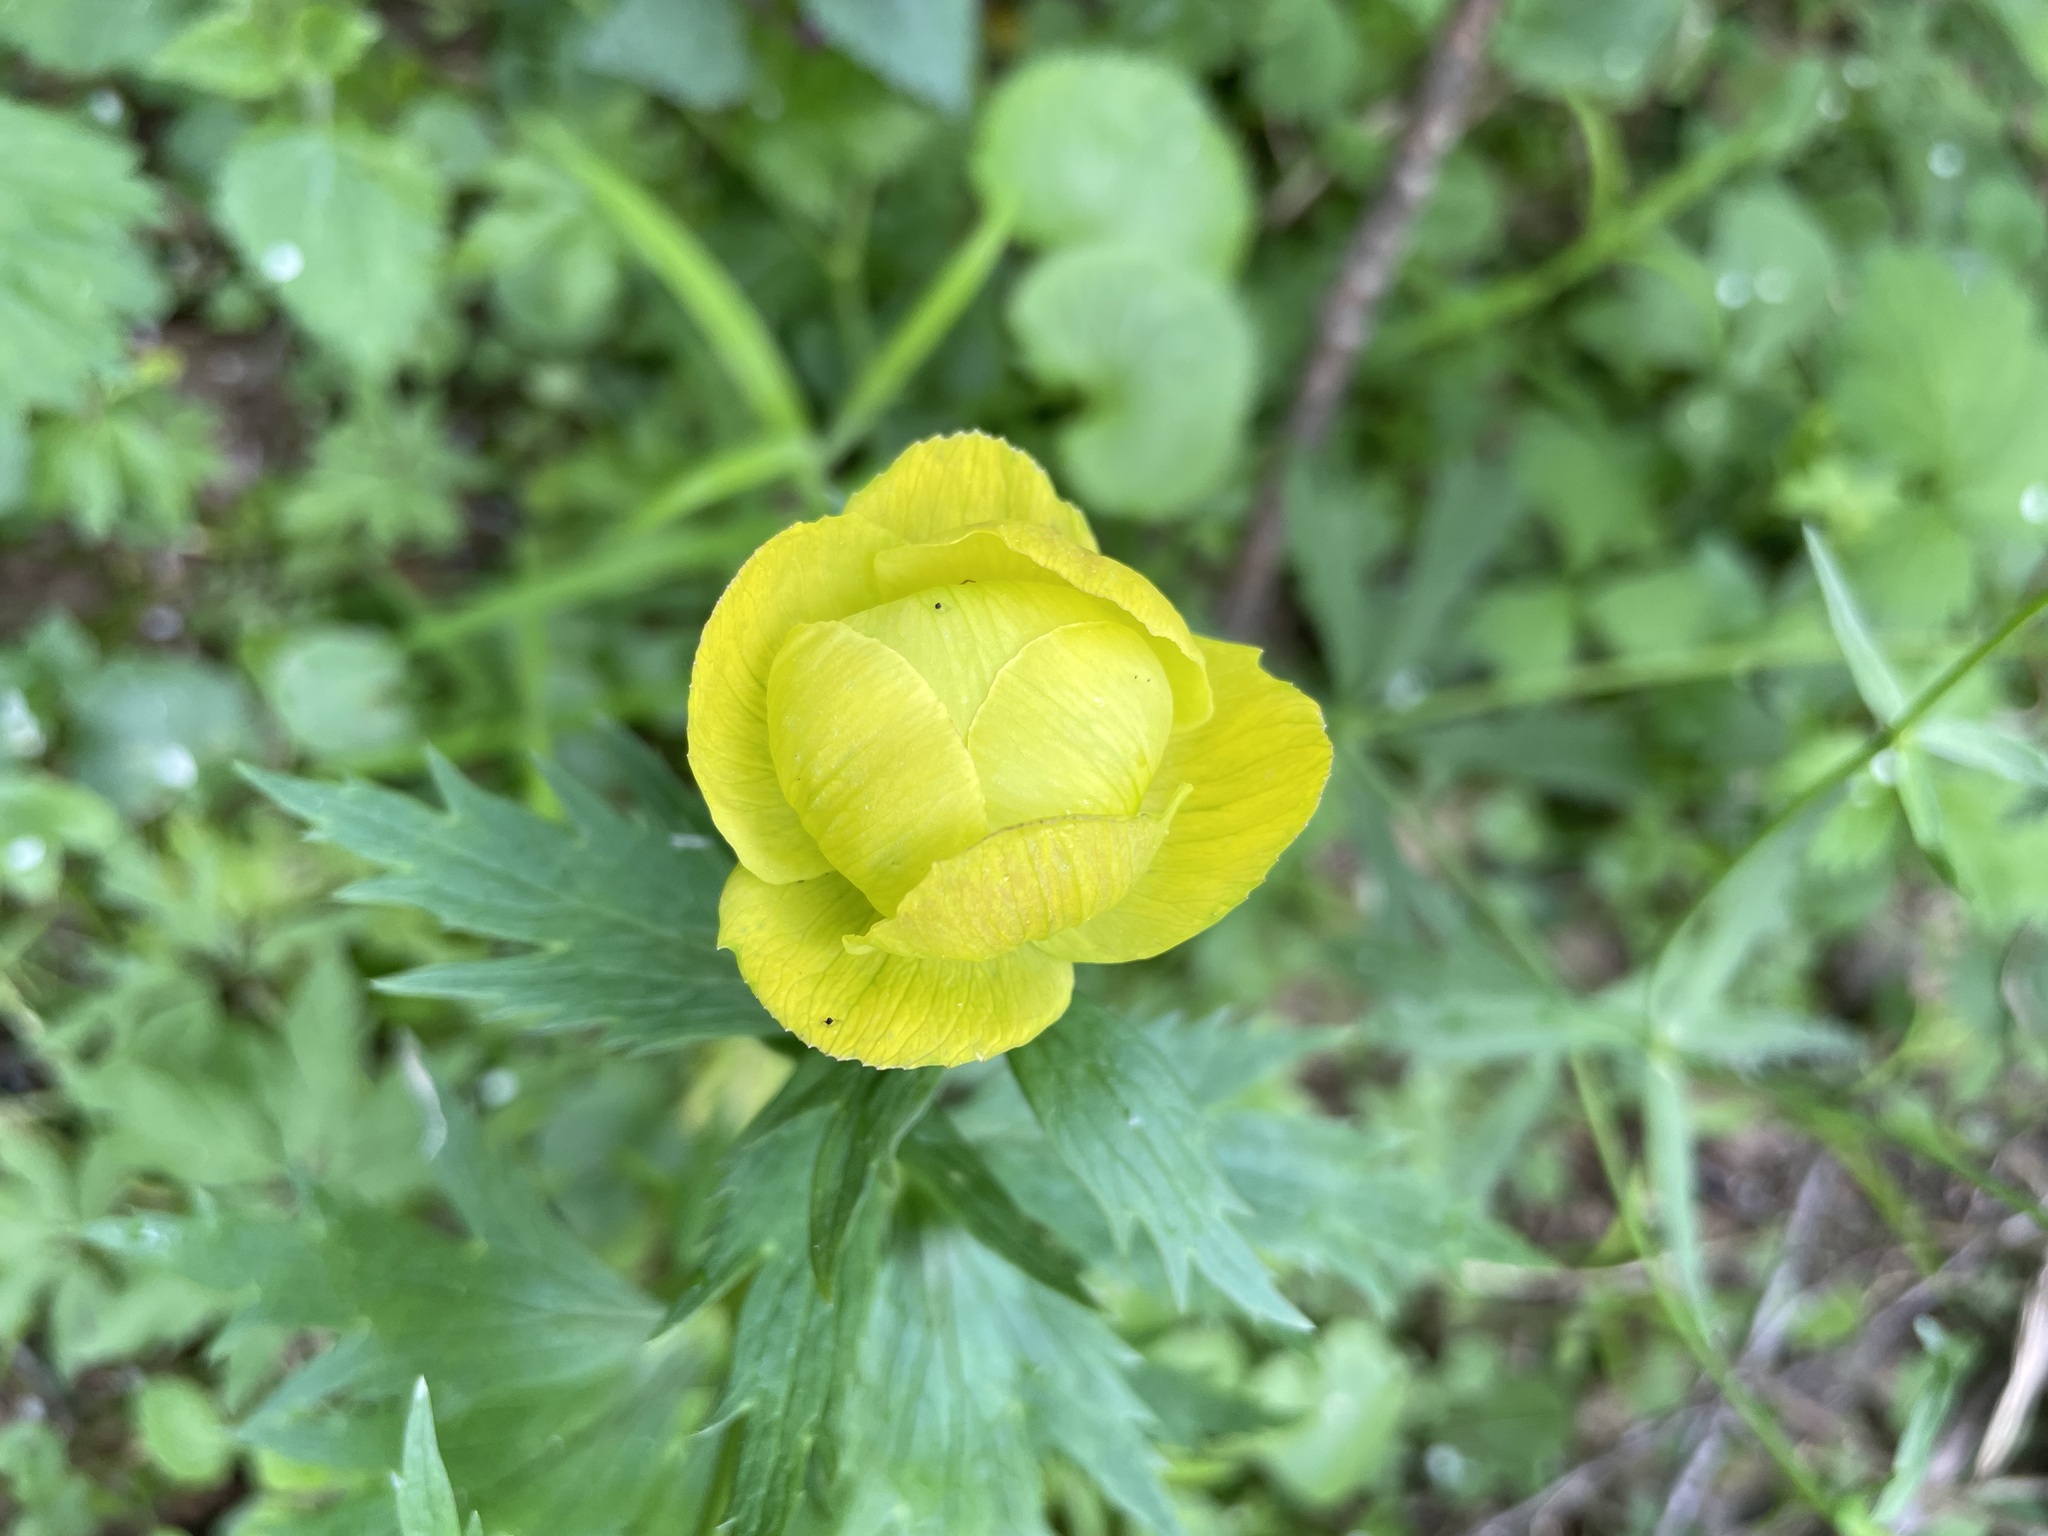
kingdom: Plantae
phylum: Tracheophyta
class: Magnoliopsida
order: Ranunculales
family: Ranunculaceae
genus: Trollius
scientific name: Trollius europaeus
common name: European globeflower
